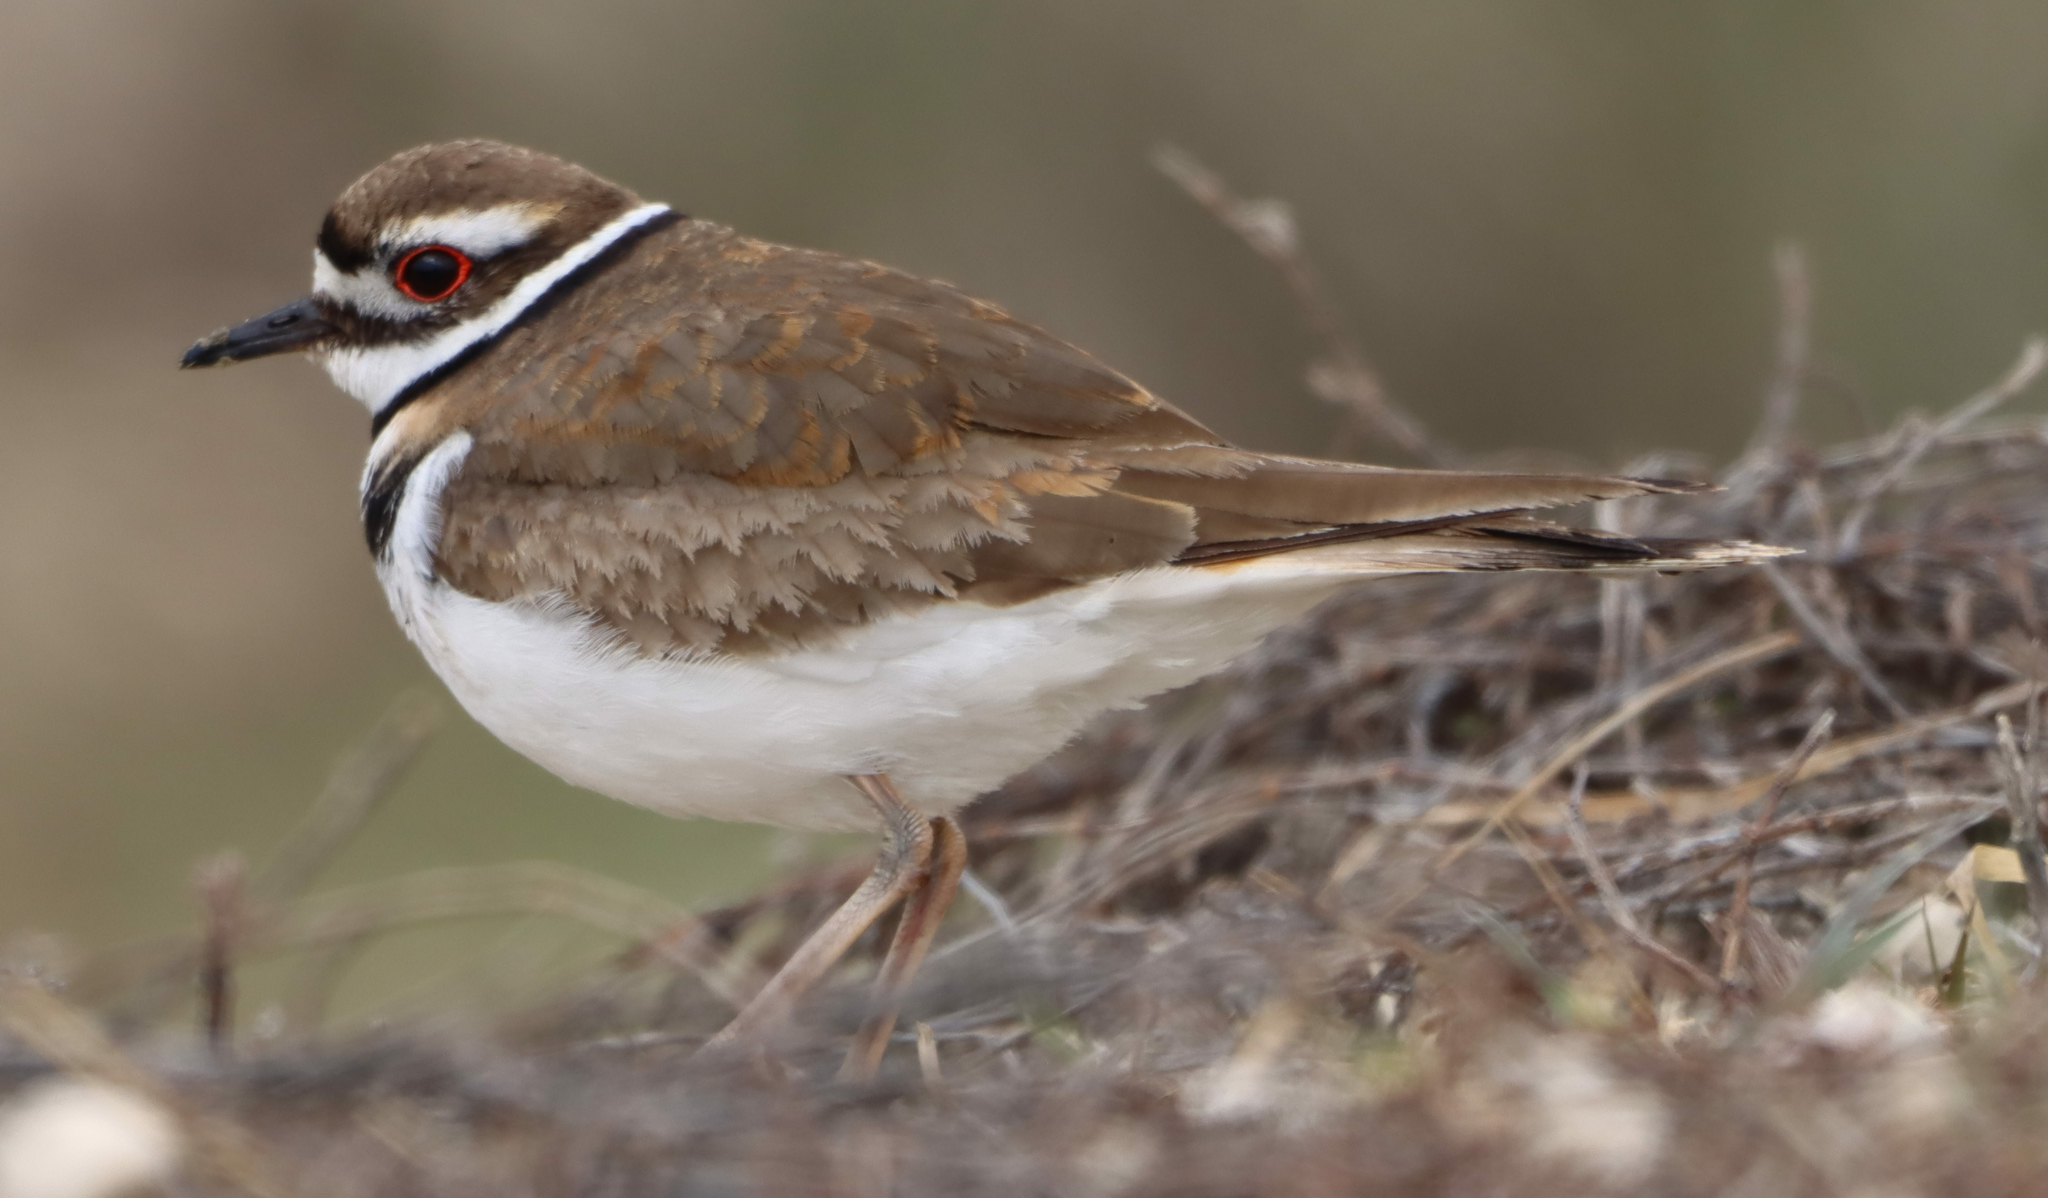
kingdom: Animalia
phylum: Chordata
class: Aves
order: Charadriiformes
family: Charadriidae
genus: Charadrius
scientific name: Charadrius vociferus
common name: Killdeer
